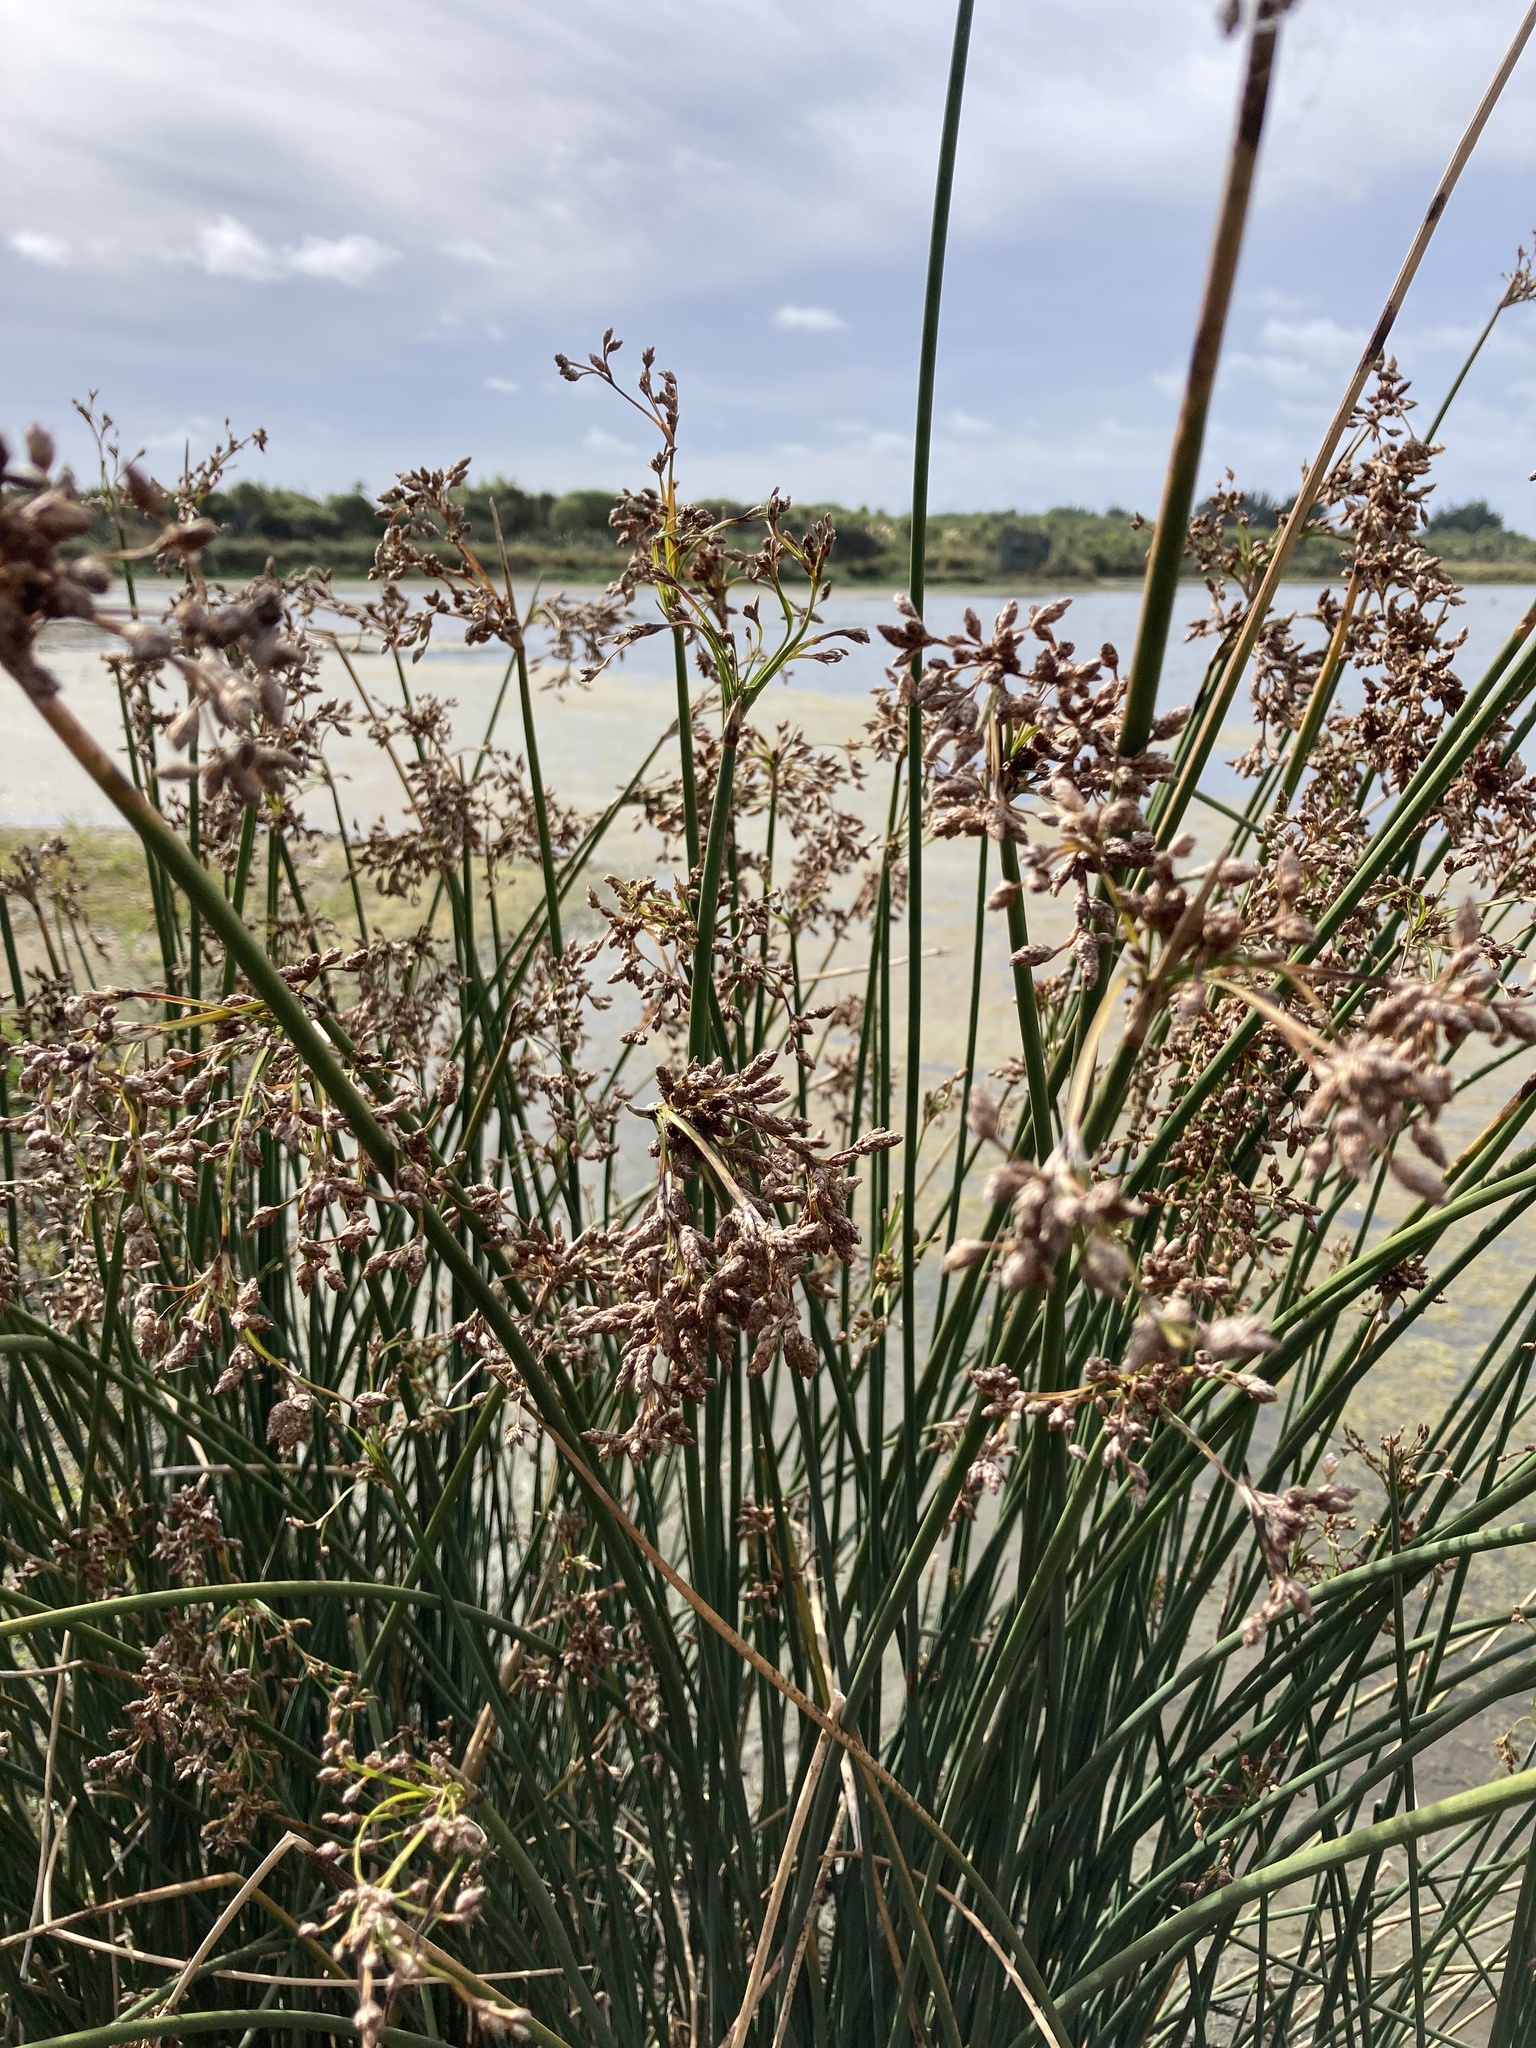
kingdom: Plantae
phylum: Tracheophyta
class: Liliopsida
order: Poales
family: Cyperaceae
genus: Schoenoplectus
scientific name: Schoenoplectus tabernaemontani
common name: Grey club-rush
